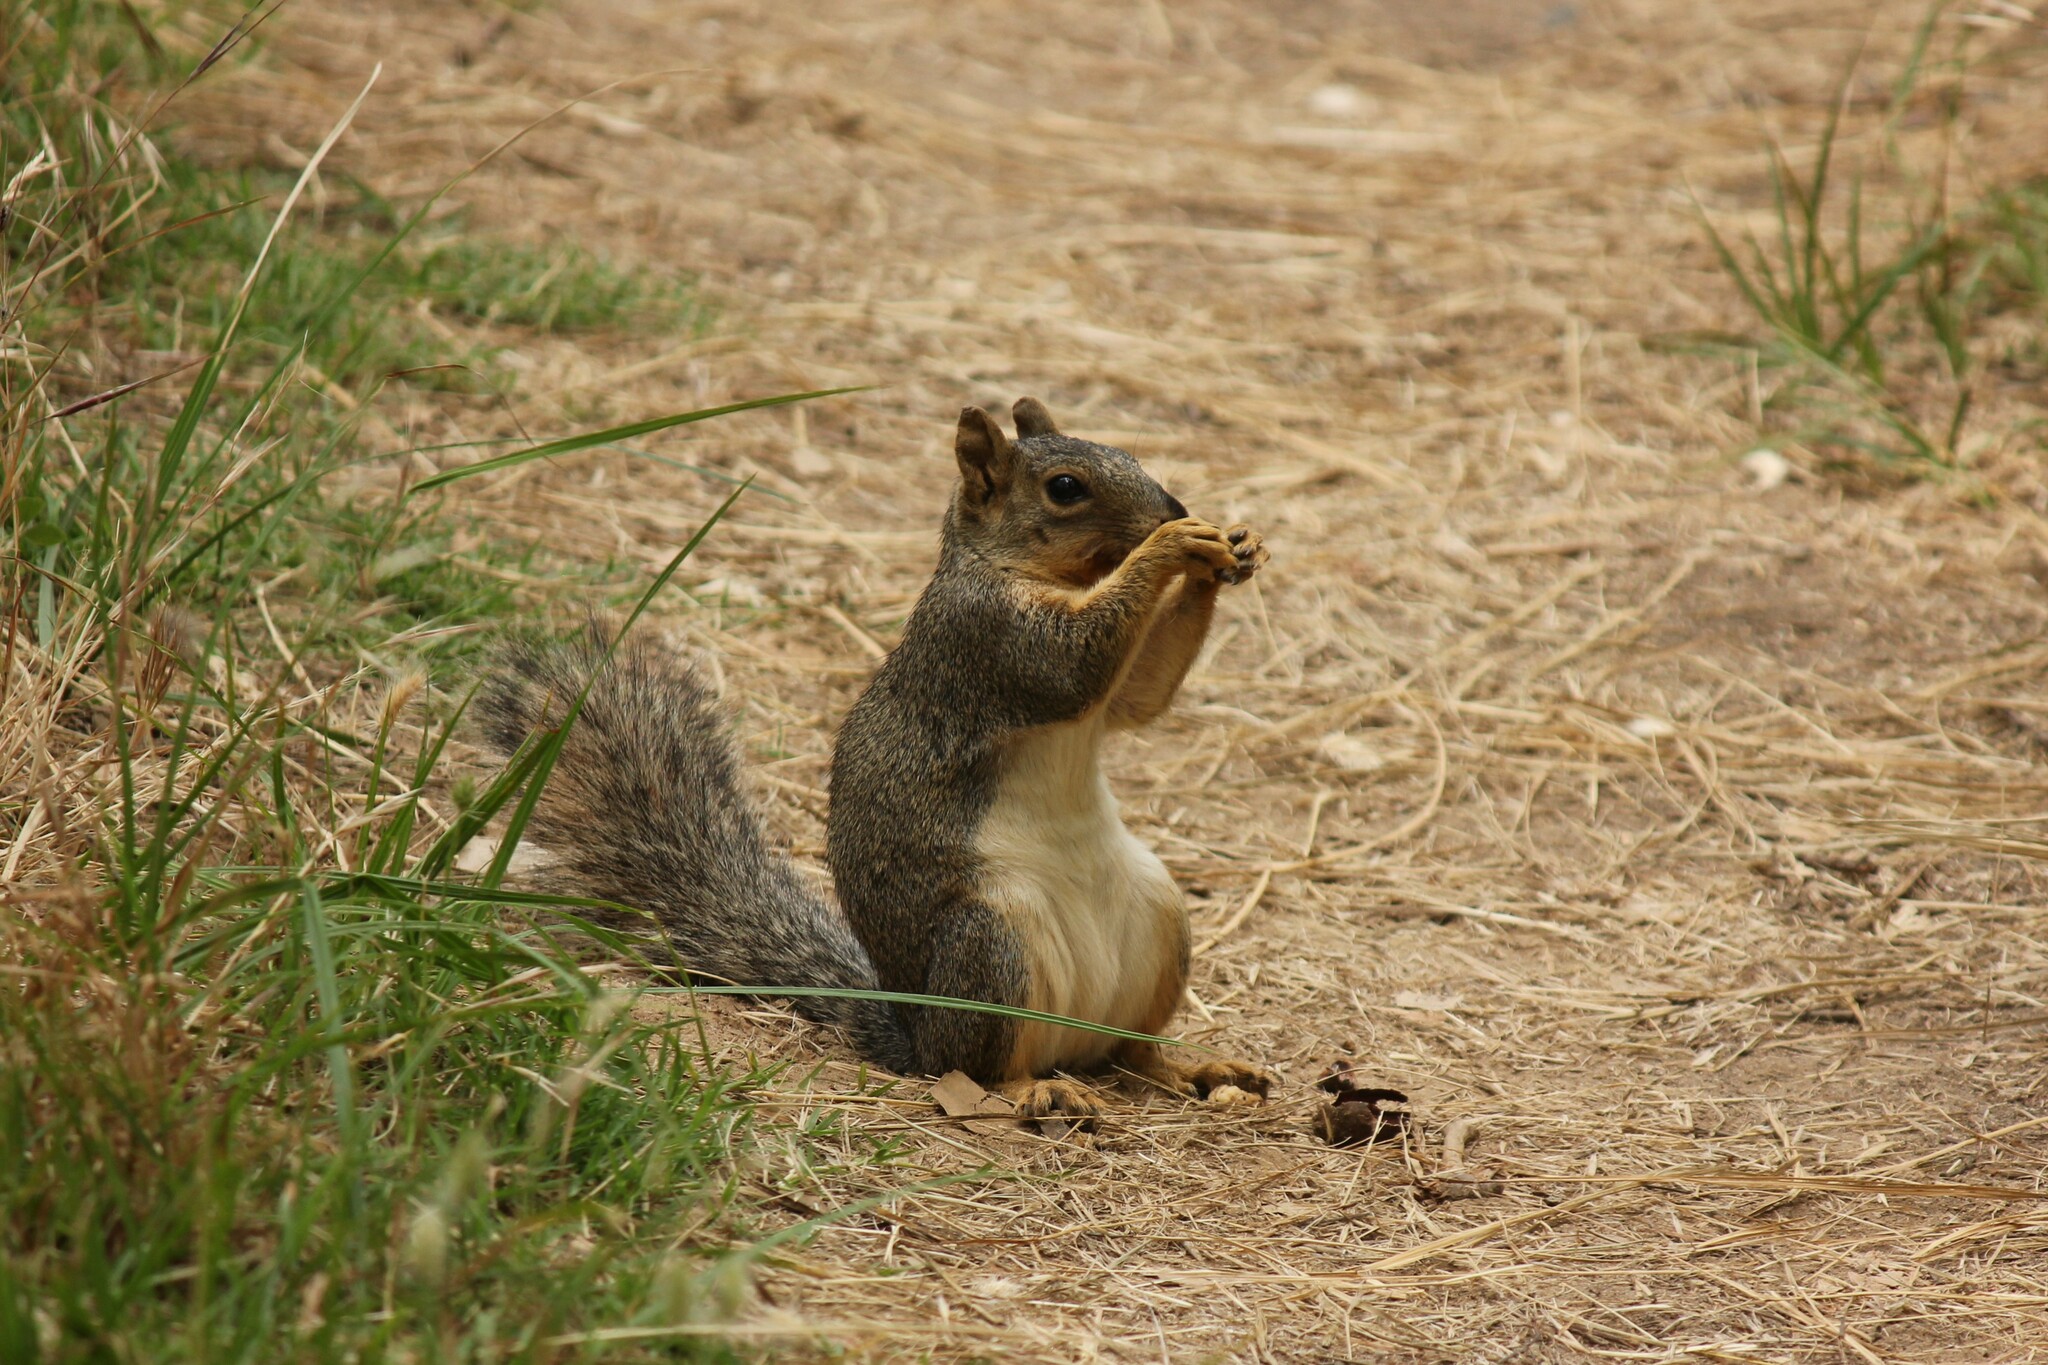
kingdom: Animalia
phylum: Chordata
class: Mammalia
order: Rodentia
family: Sciuridae
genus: Sciurus
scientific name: Sciurus niger
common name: Fox squirrel
